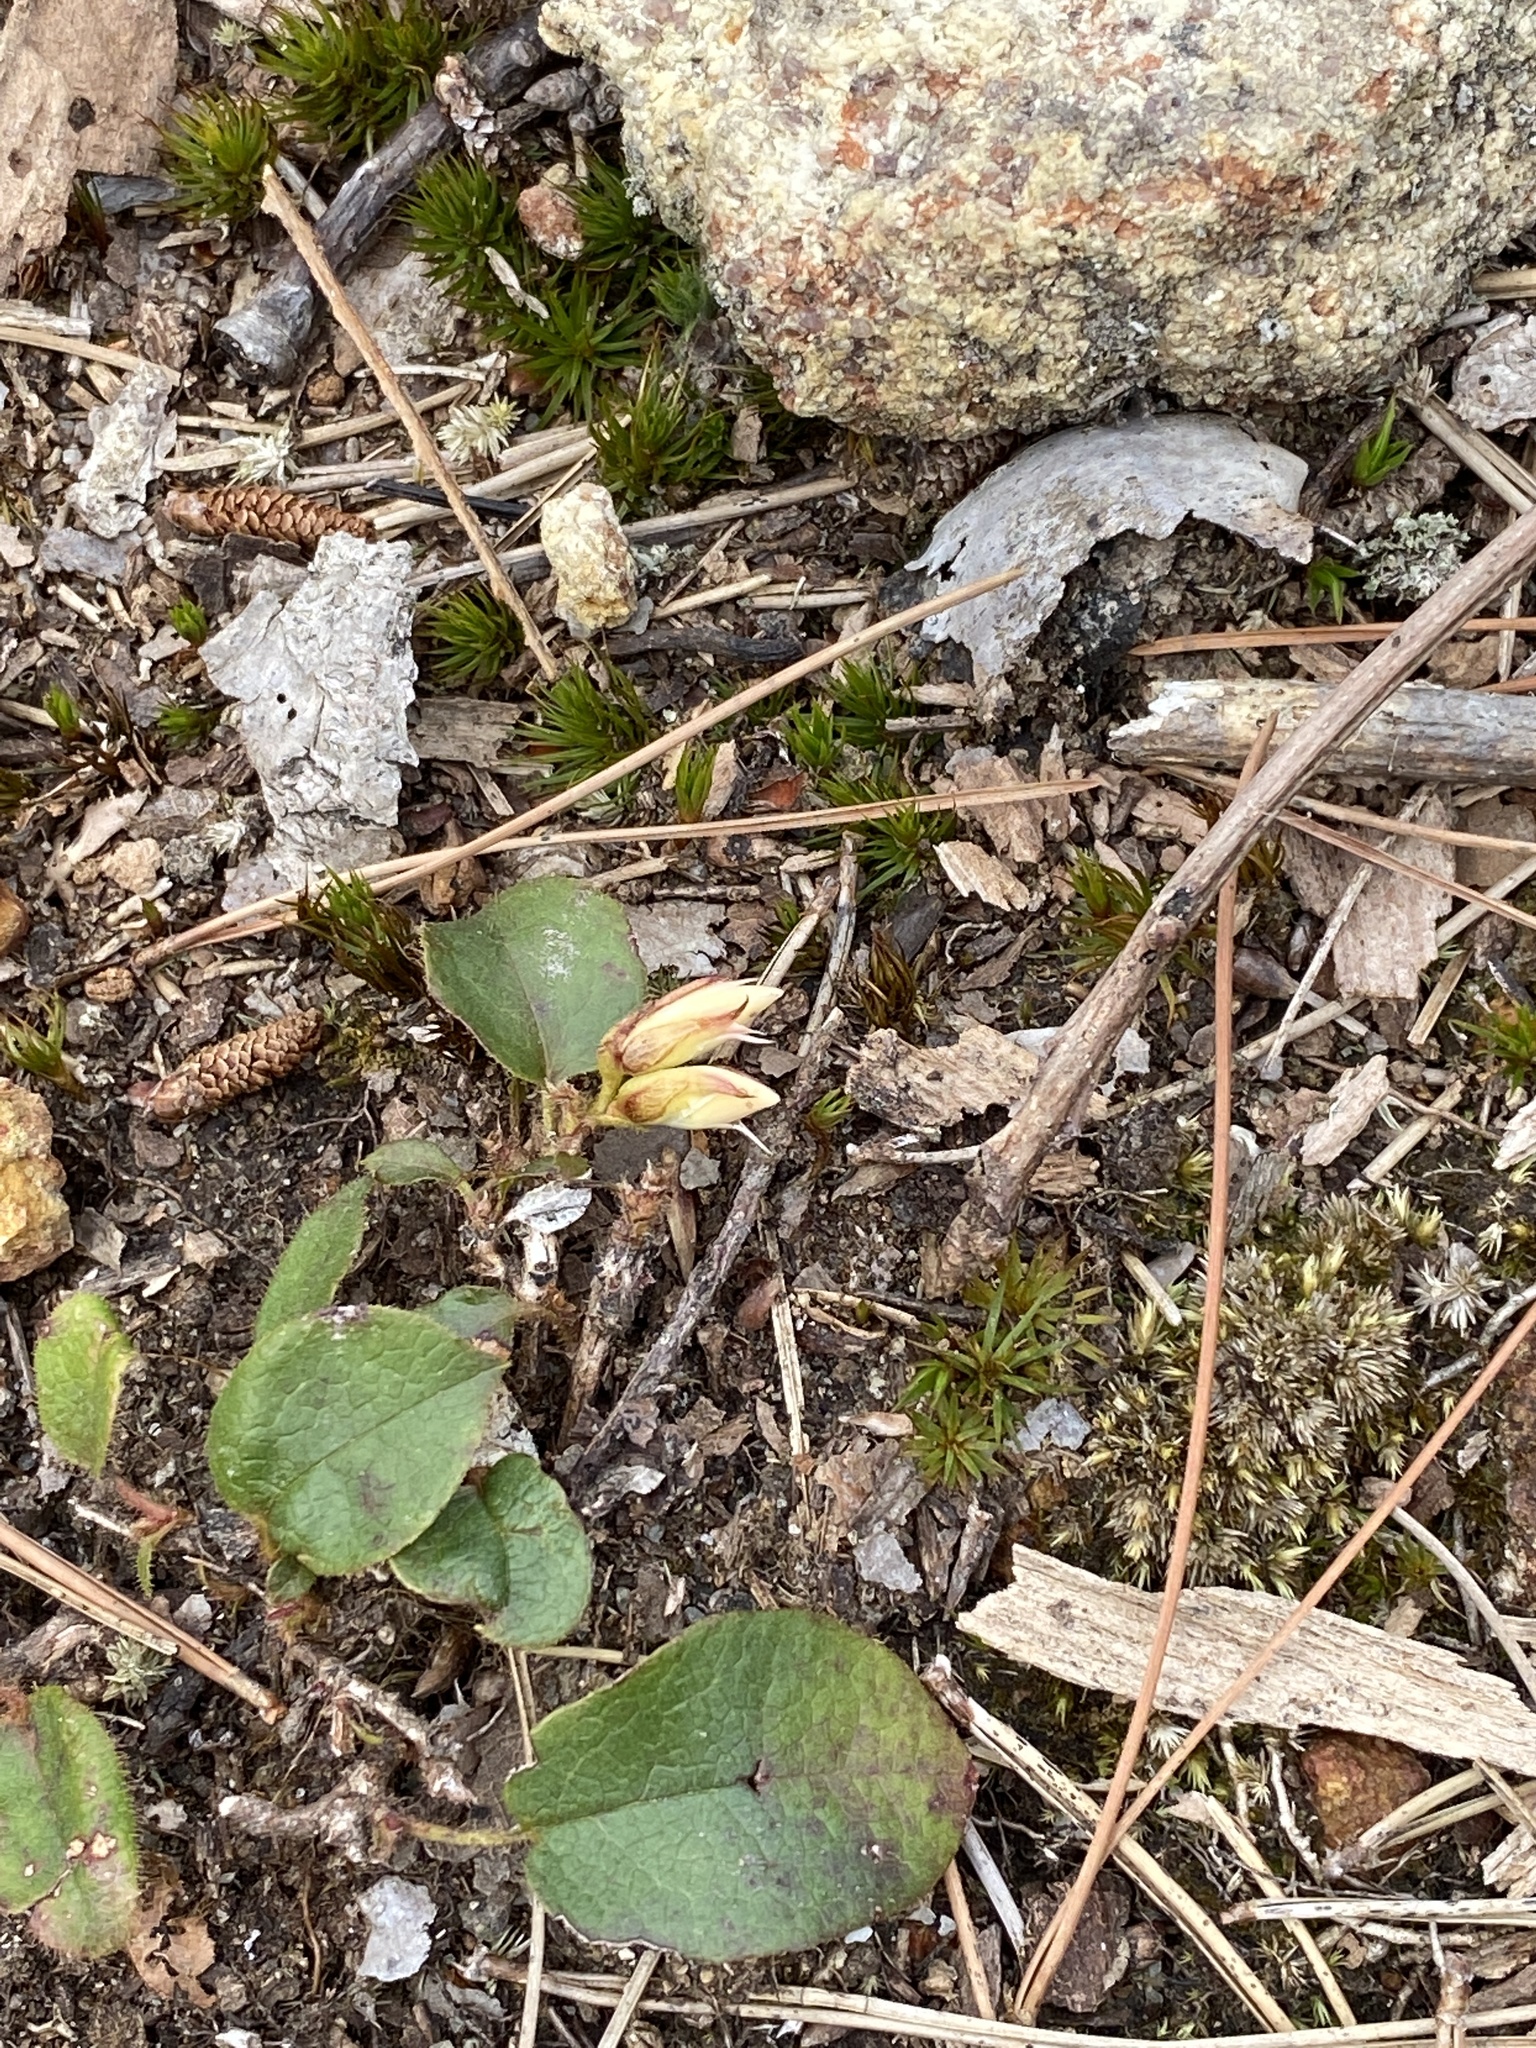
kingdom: Plantae
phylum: Tracheophyta
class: Magnoliopsida
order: Ericales
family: Ericaceae
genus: Epigaea
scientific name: Epigaea repens
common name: Gravelroot
